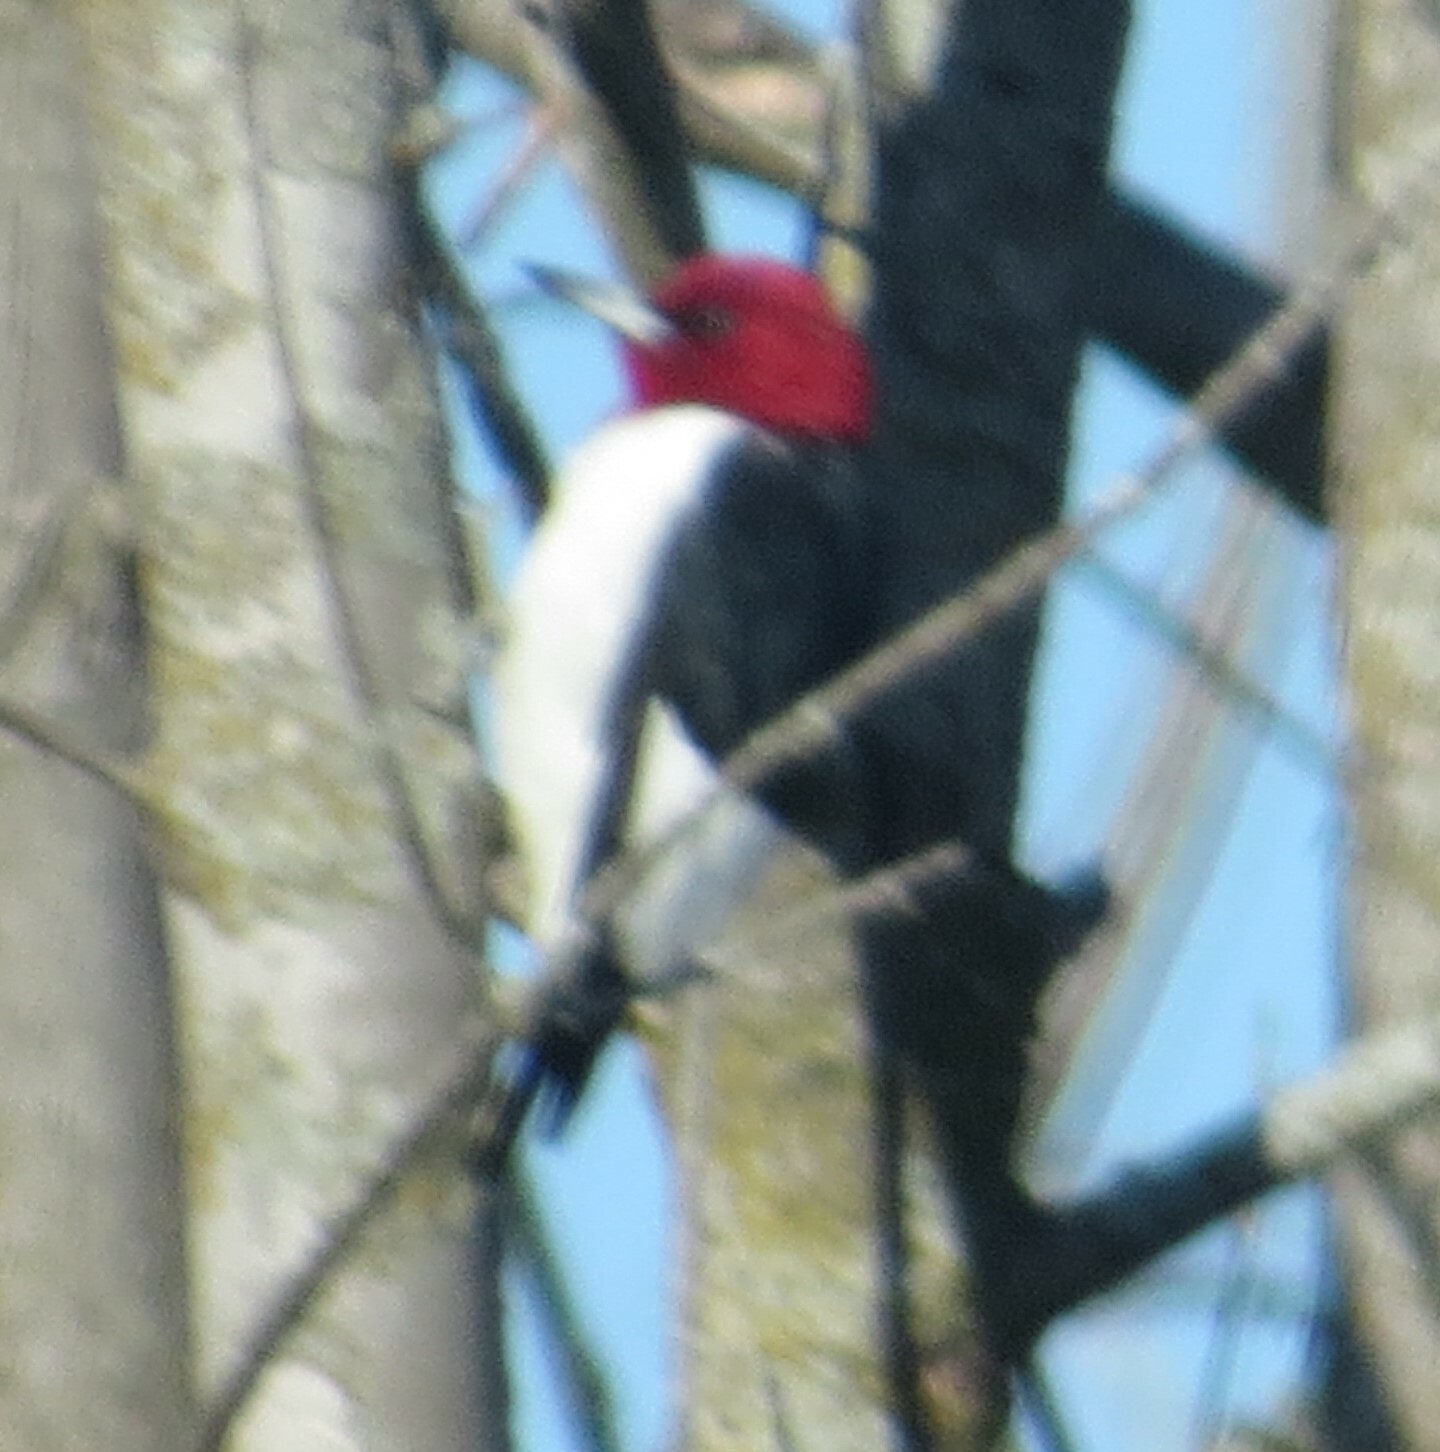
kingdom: Animalia
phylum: Chordata
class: Aves
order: Piciformes
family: Picidae
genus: Melanerpes
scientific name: Melanerpes erythrocephalus
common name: Red-headed woodpecker
